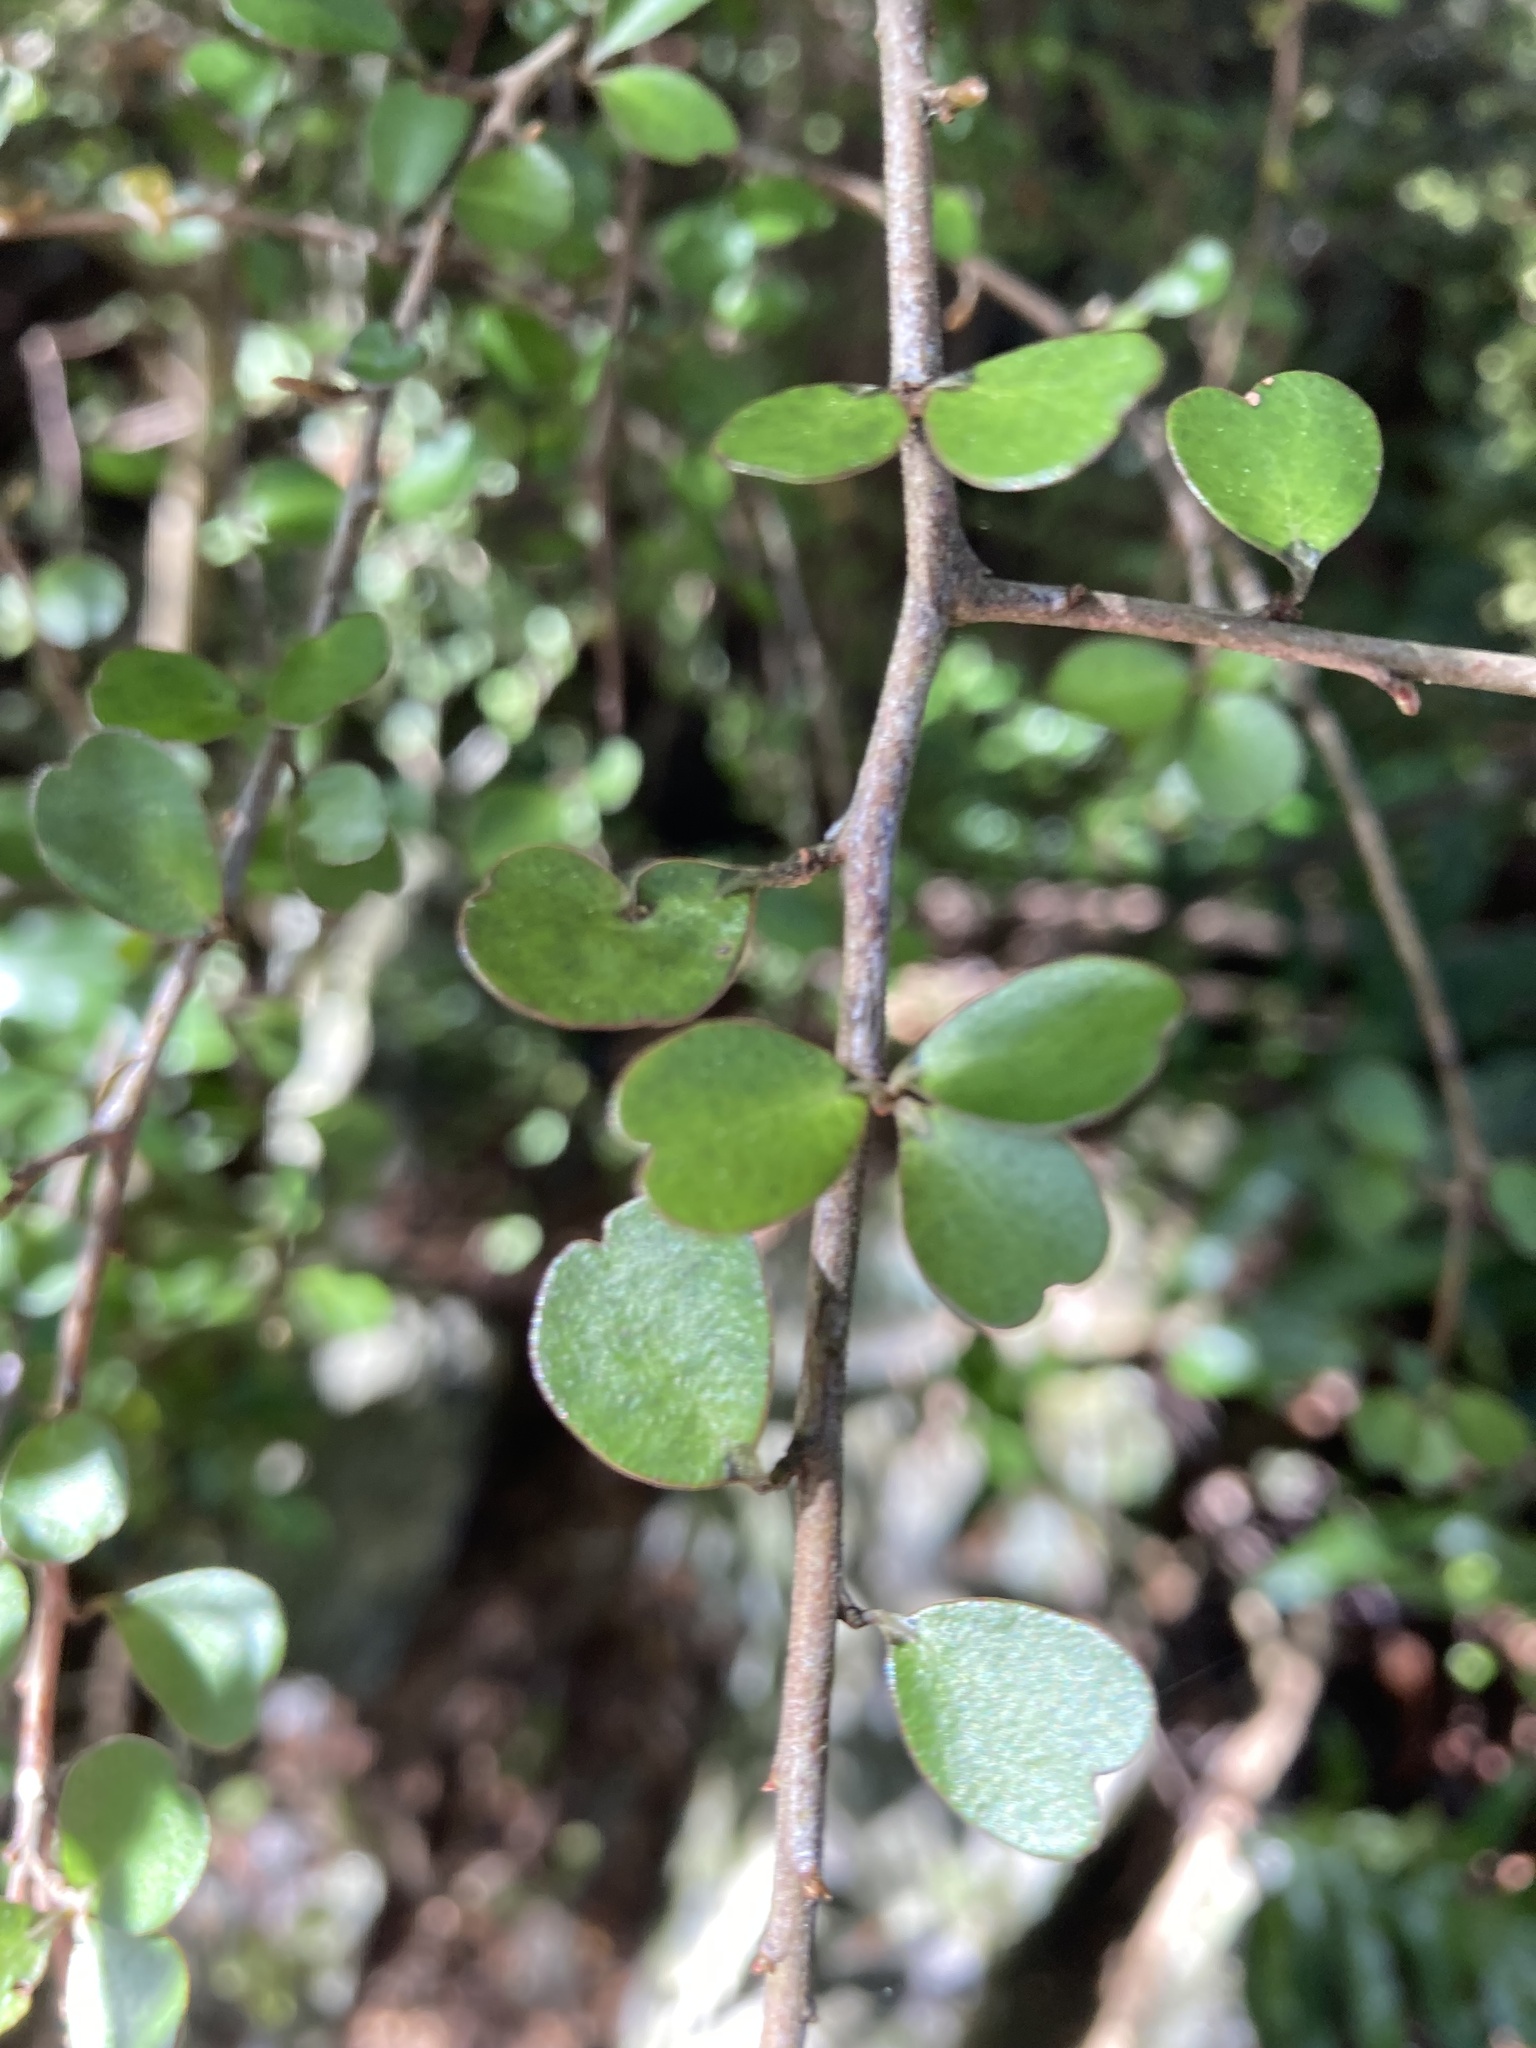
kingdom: Plantae
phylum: Tracheophyta
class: Magnoliopsida
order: Ericales
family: Primulaceae
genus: Myrsine
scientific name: Myrsine divaricata
